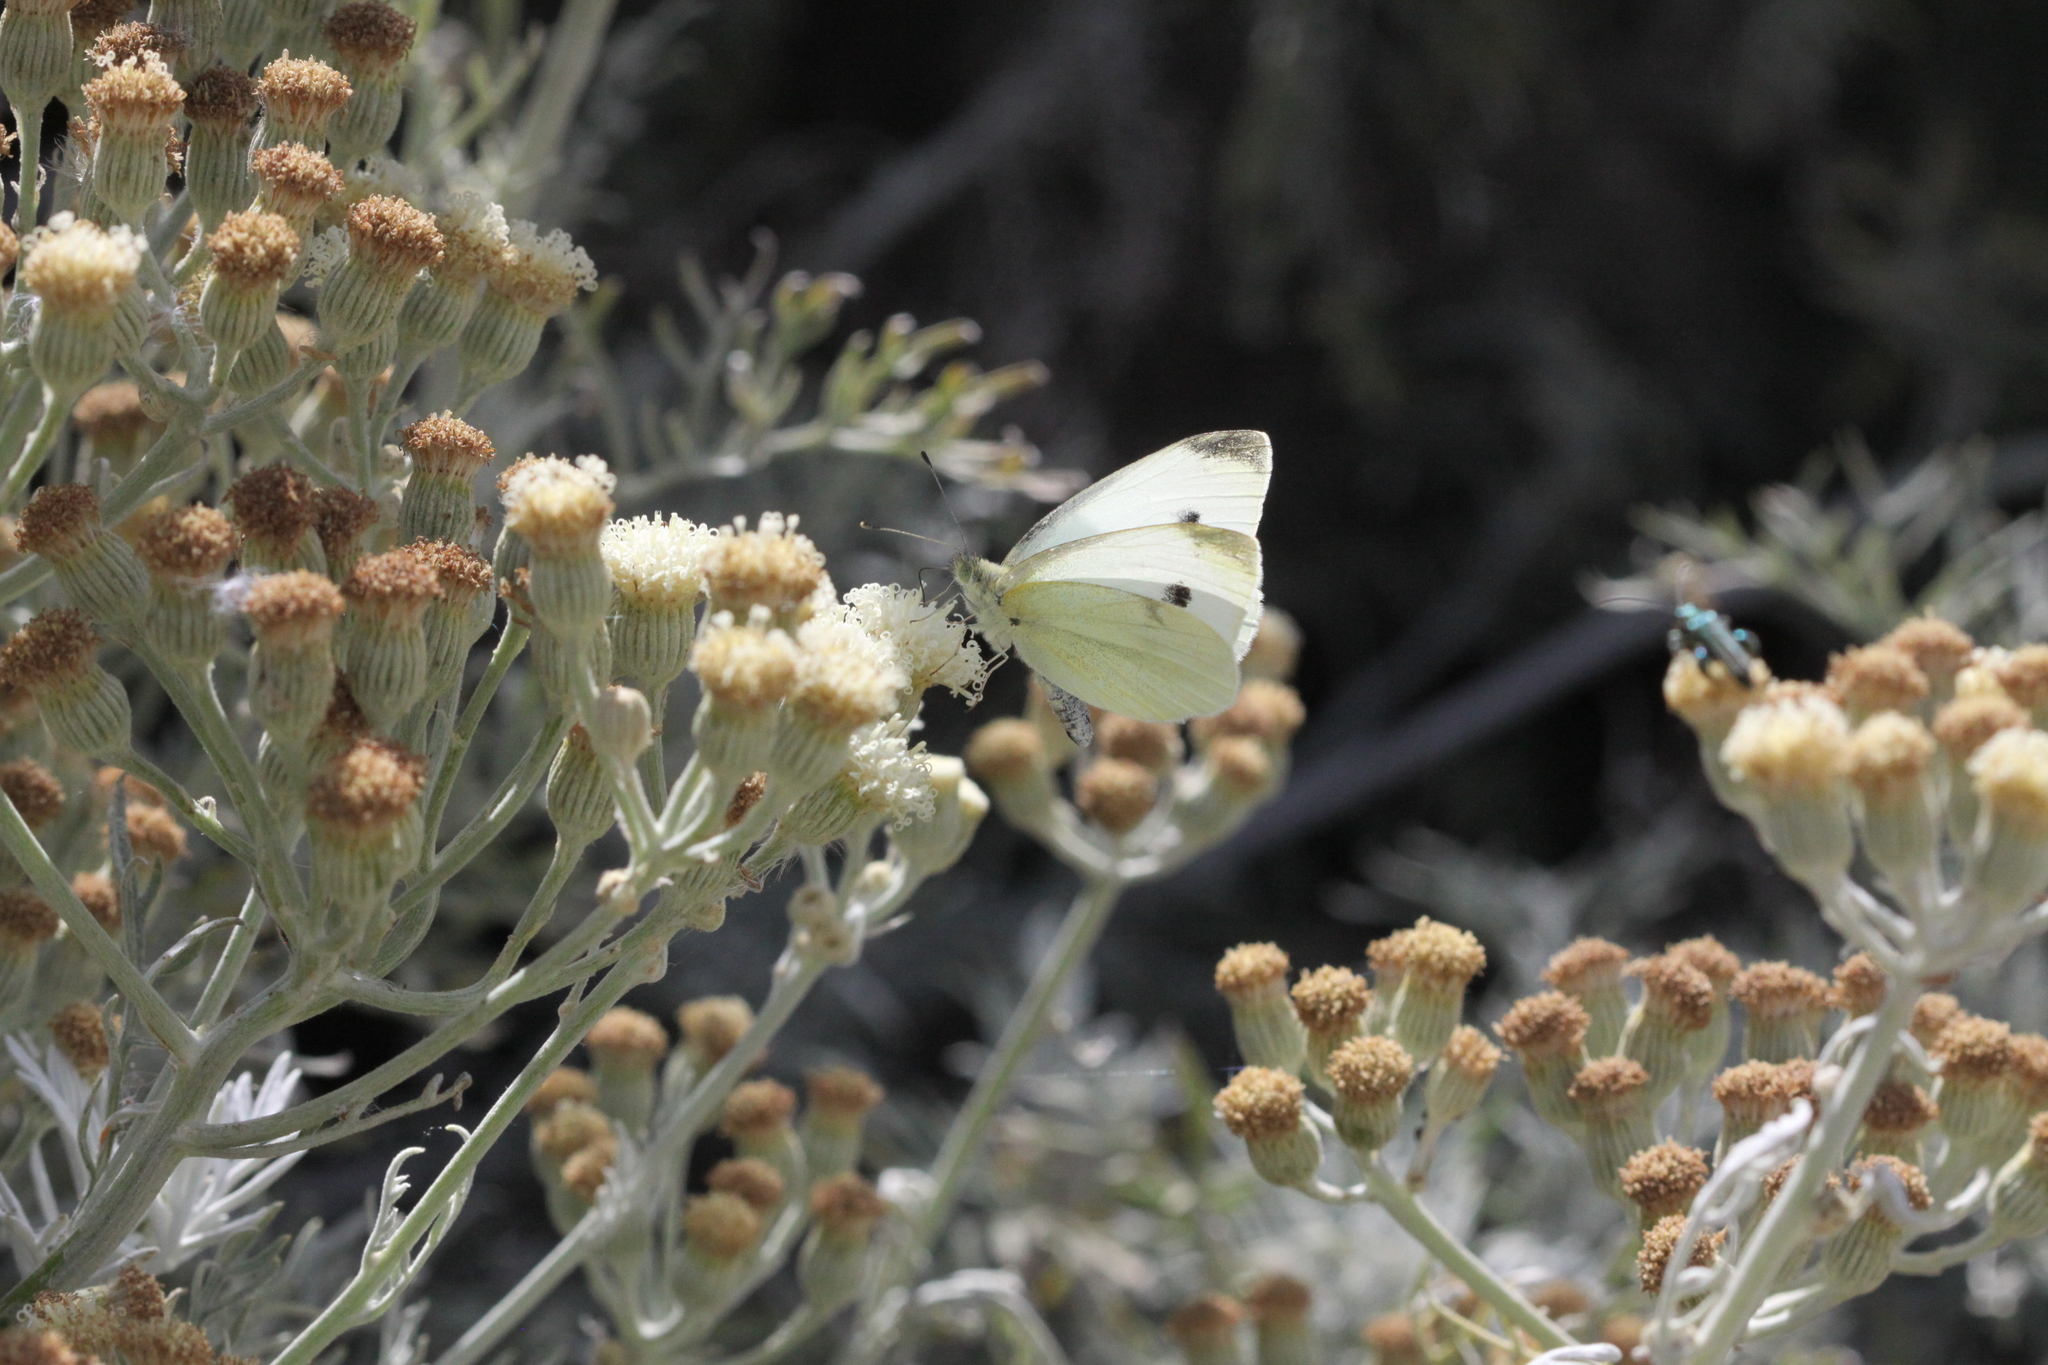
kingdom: Animalia
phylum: Arthropoda
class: Insecta
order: Lepidoptera
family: Pieridae
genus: Pieris
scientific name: Pieris rapae
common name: Small white
